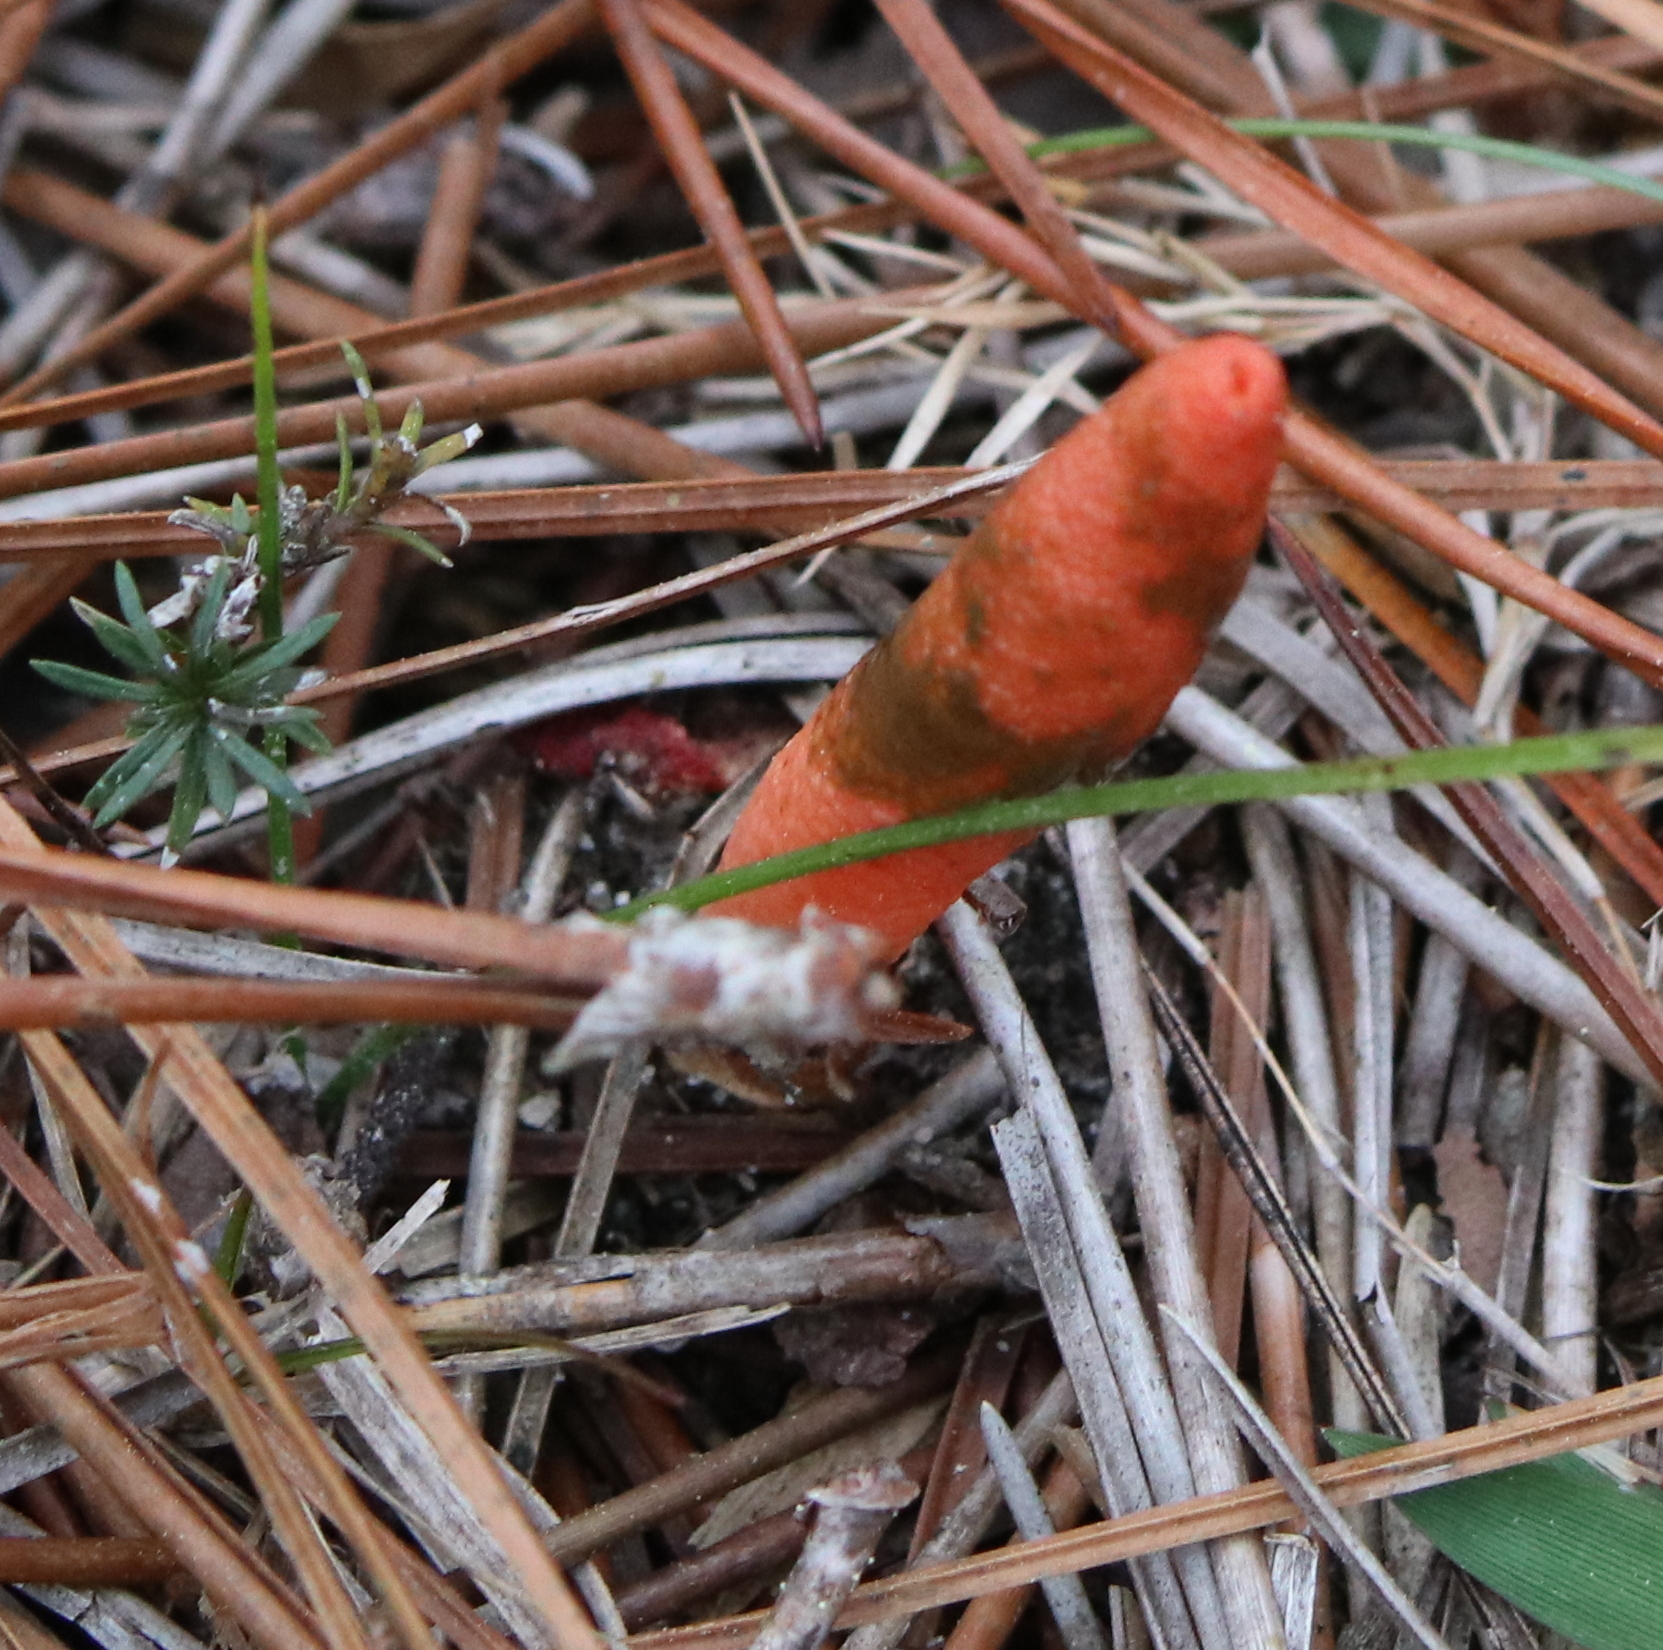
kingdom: Fungi
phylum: Basidiomycota
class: Agaricomycetes
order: Phallales
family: Phallaceae
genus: Mutinus
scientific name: Mutinus elegans
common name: Devil's dipstick
